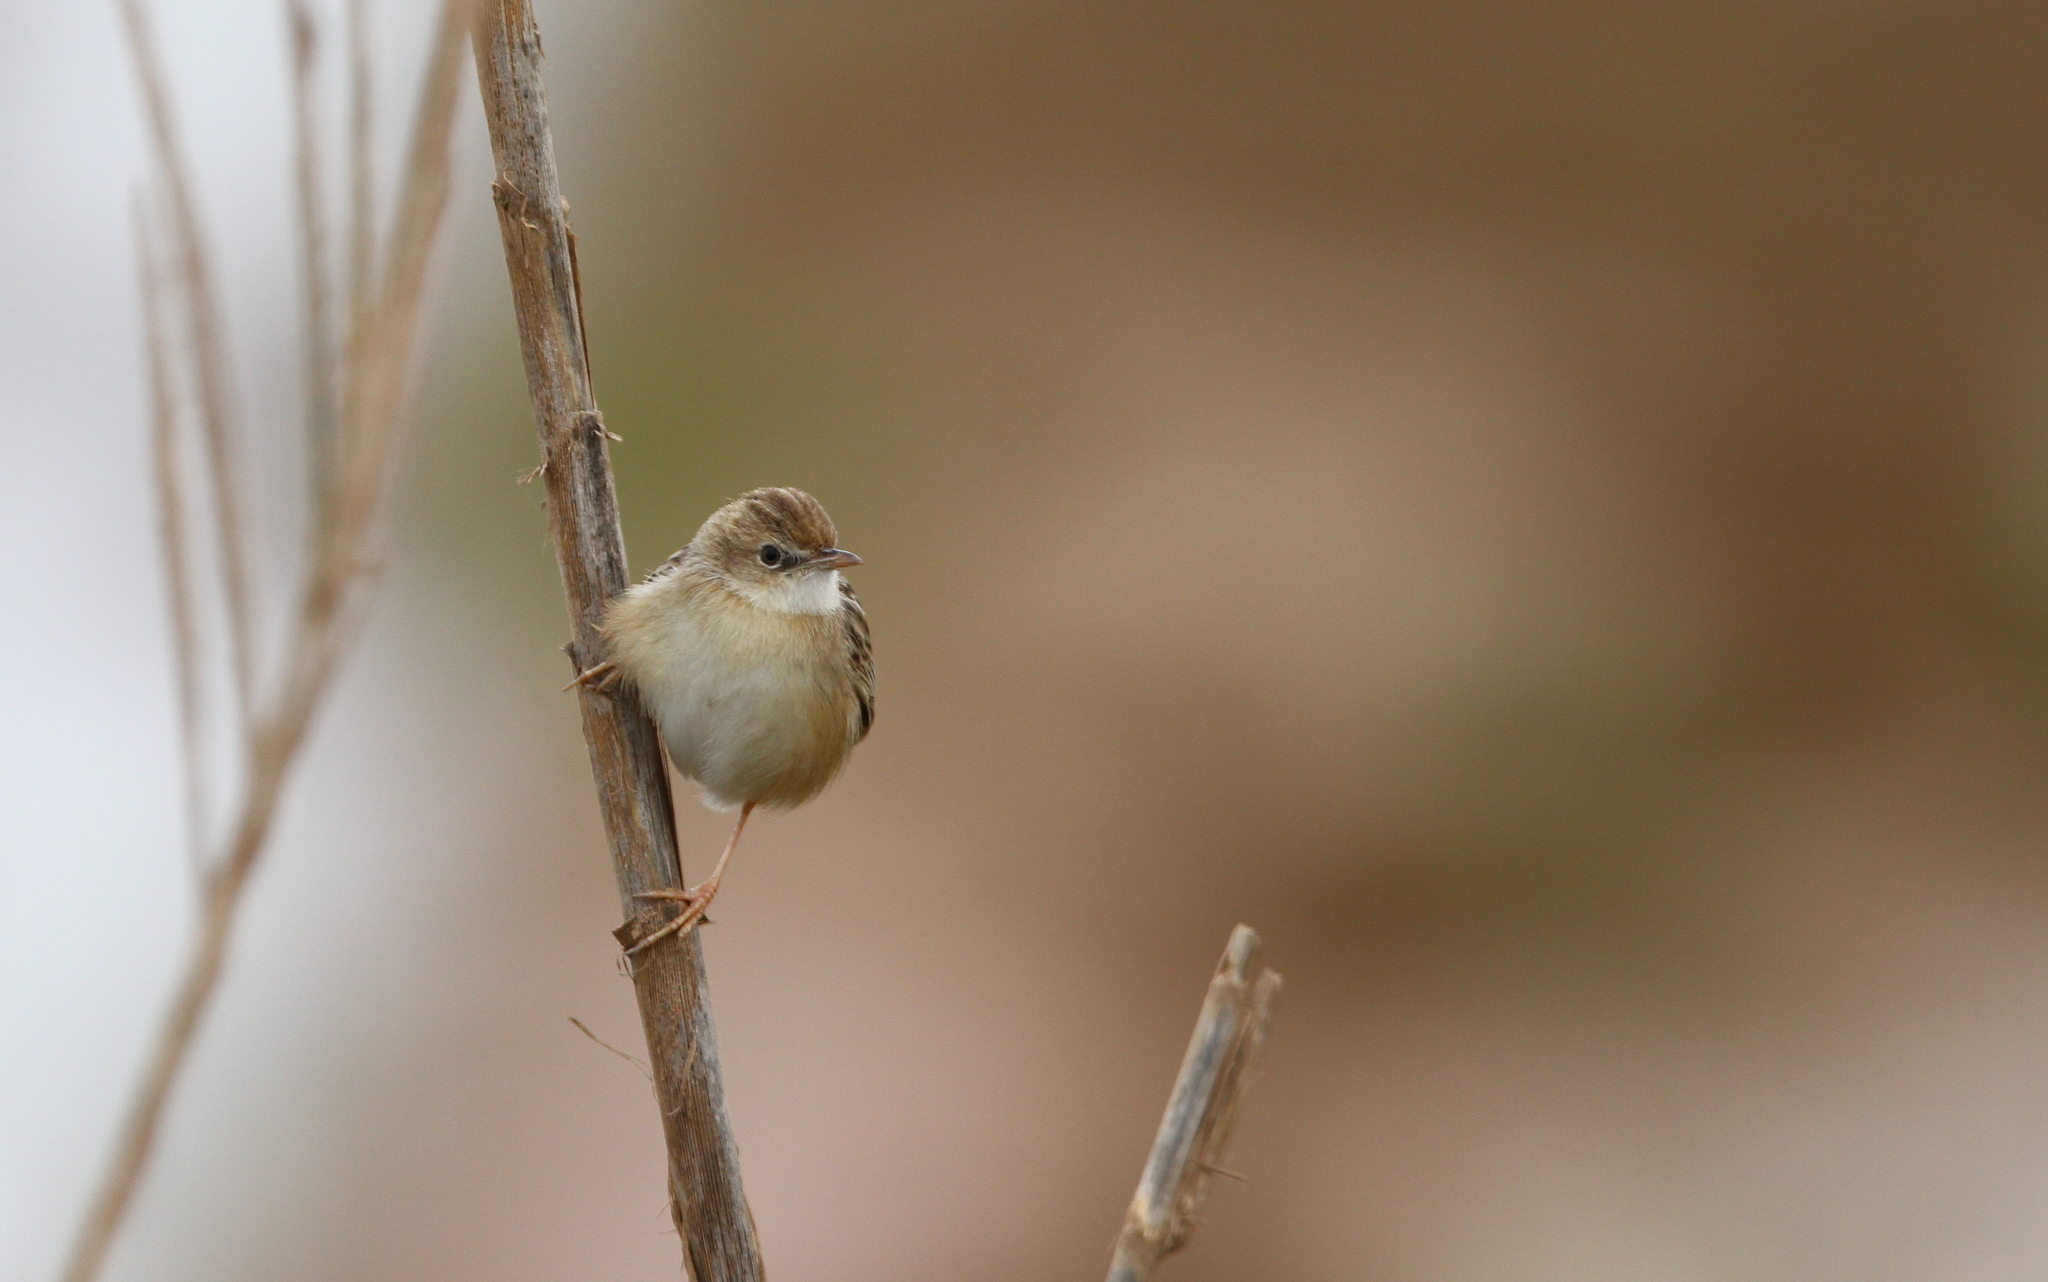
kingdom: Animalia
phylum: Chordata
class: Aves
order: Passeriformes
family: Cisticolidae
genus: Cisticola
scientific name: Cisticola juncidis
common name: Zitting cisticola
